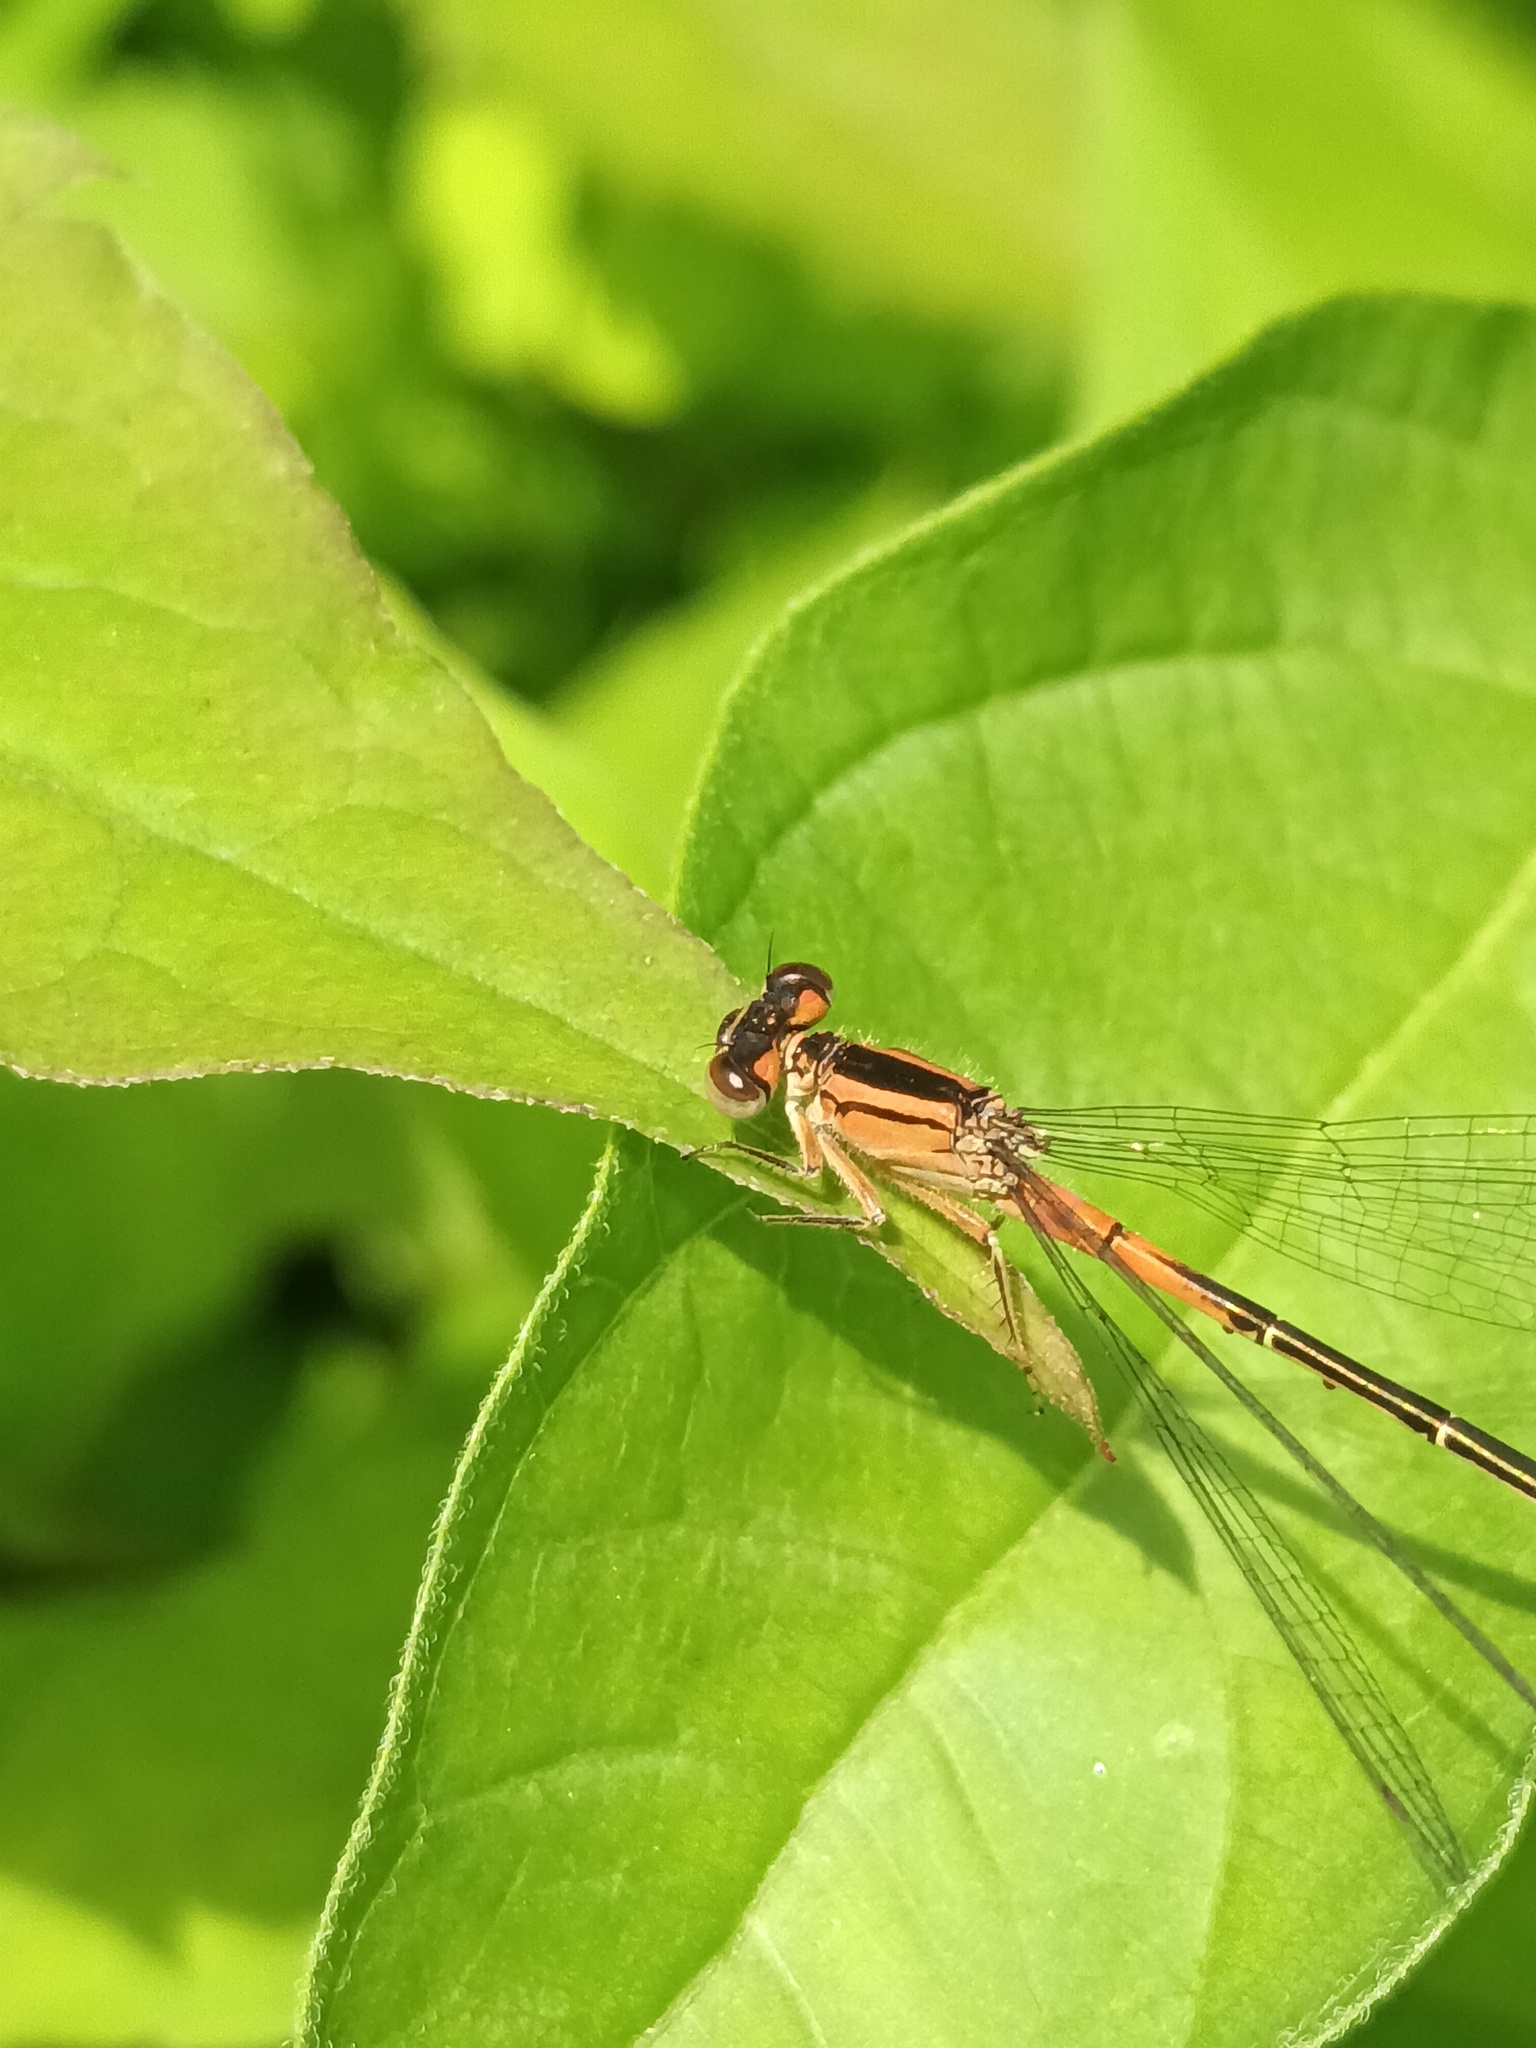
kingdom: Animalia
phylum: Arthropoda
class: Insecta
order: Odonata
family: Coenagrionidae
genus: Ischnura
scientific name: Ischnura verticalis
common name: Eastern forktail
